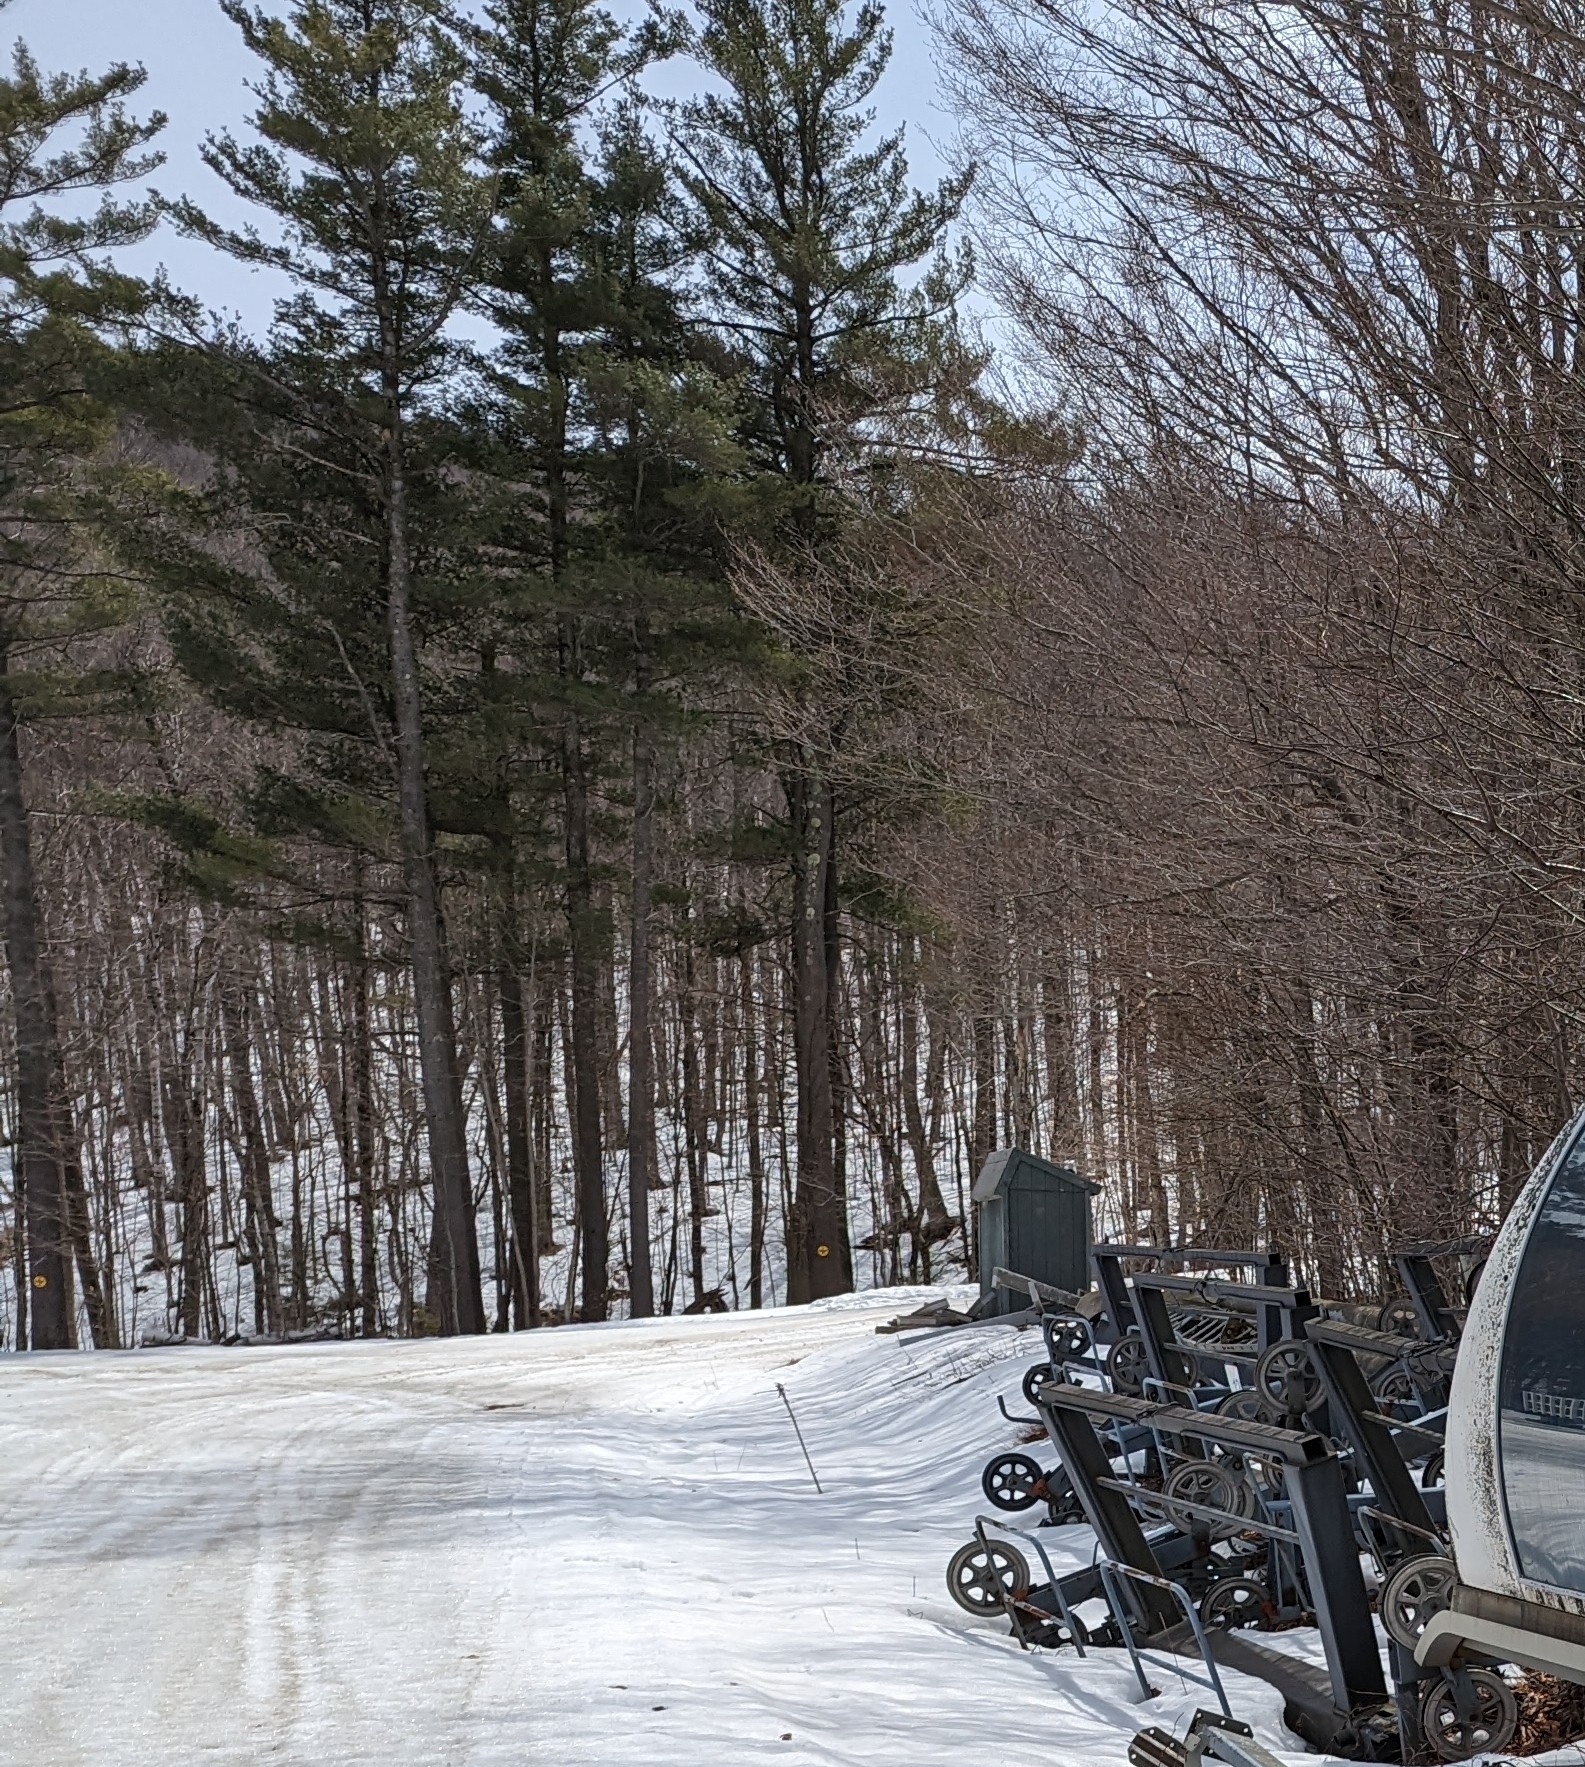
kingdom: Plantae
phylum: Tracheophyta
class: Pinopsida
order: Pinales
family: Pinaceae
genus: Pinus
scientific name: Pinus strobus
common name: Weymouth pine
